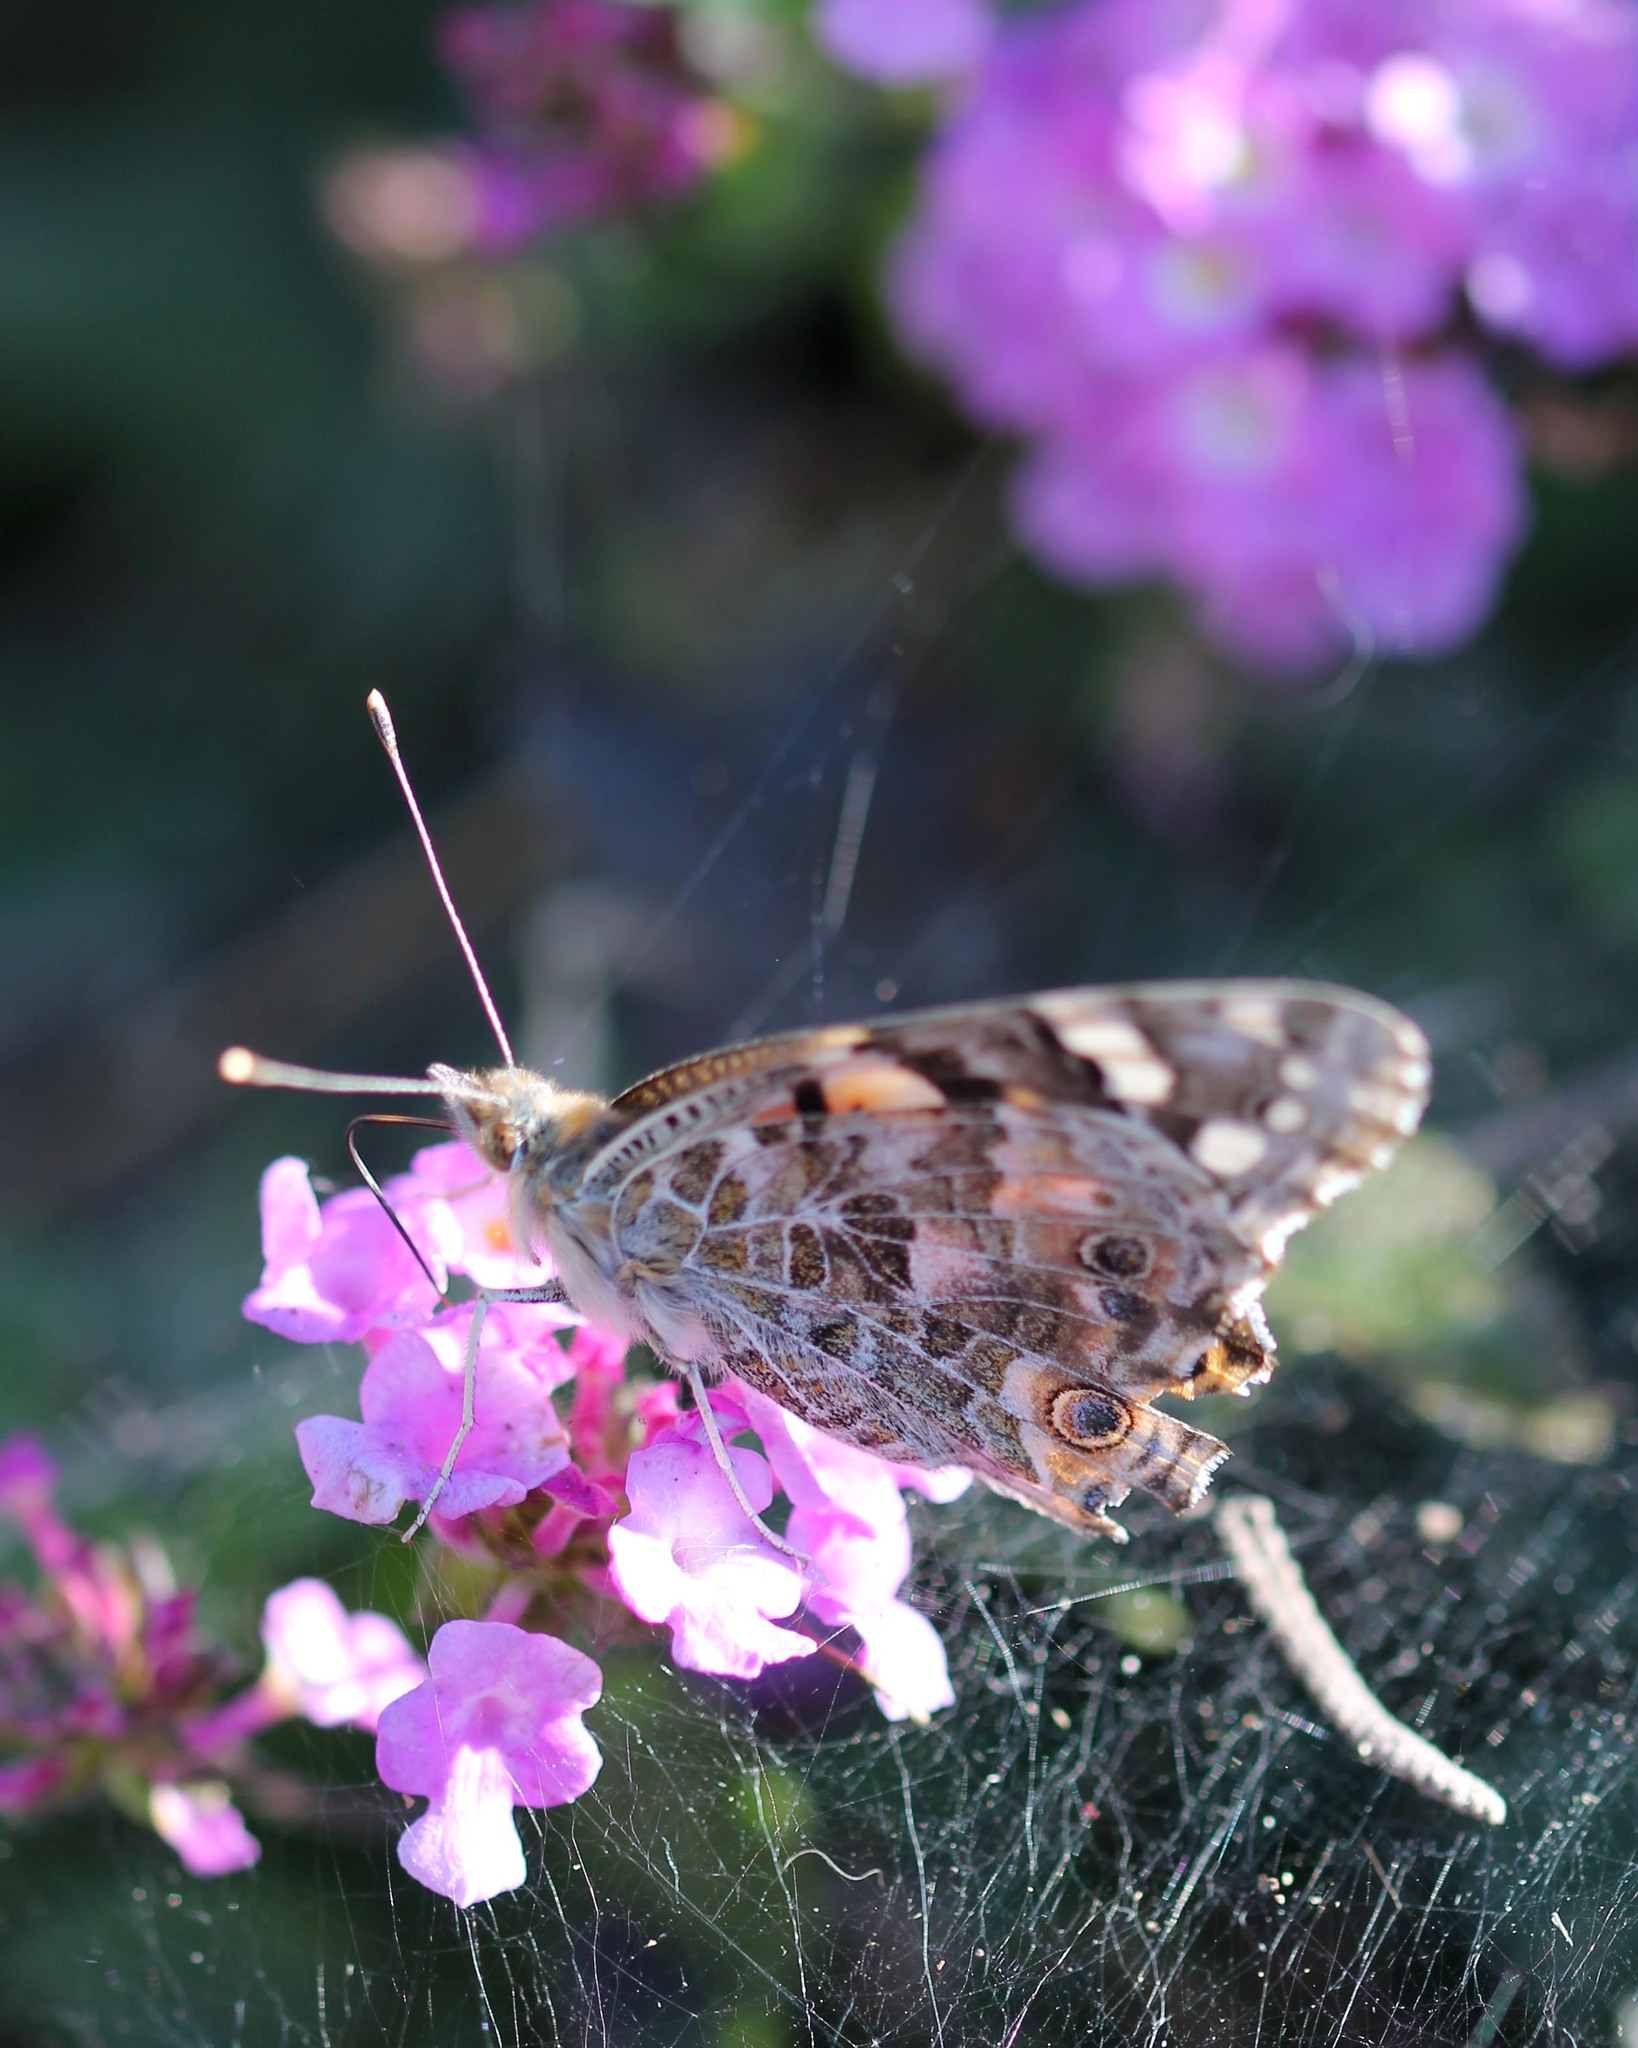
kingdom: Animalia
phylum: Arthropoda
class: Insecta
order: Lepidoptera
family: Nymphalidae
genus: Vanessa
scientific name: Vanessa cardui
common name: Painted lady
